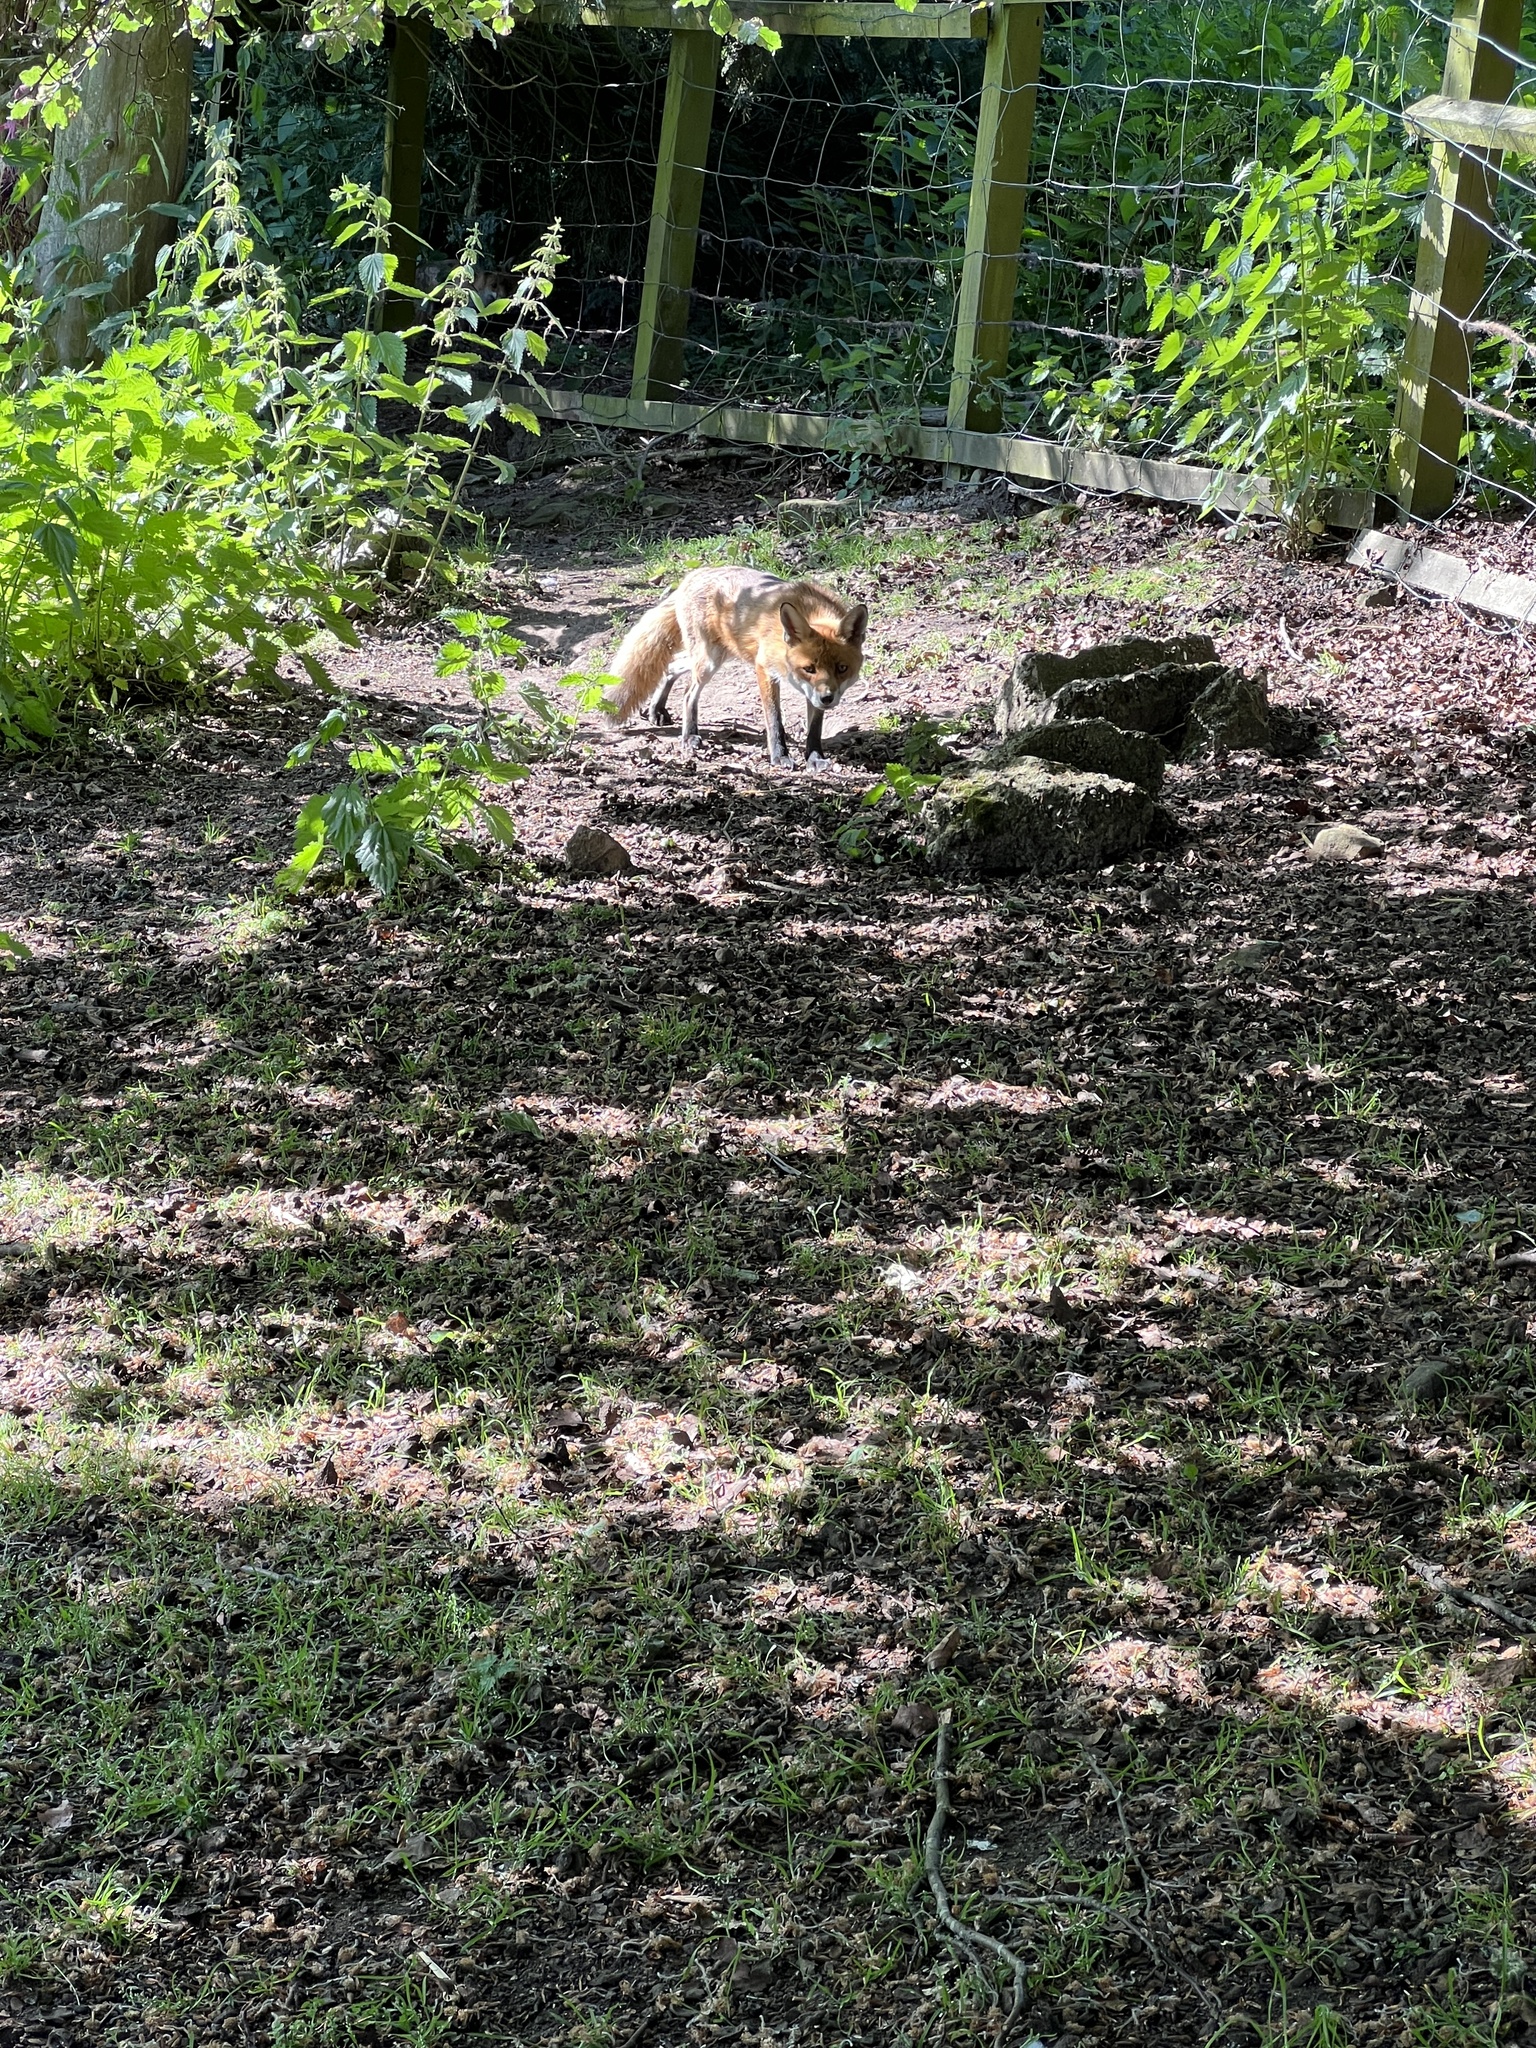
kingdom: Animalia
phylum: Chordata
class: Mammalia
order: Carnivora
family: Canidae
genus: Vulpes
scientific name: Vulpes vulpes
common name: Red fox
